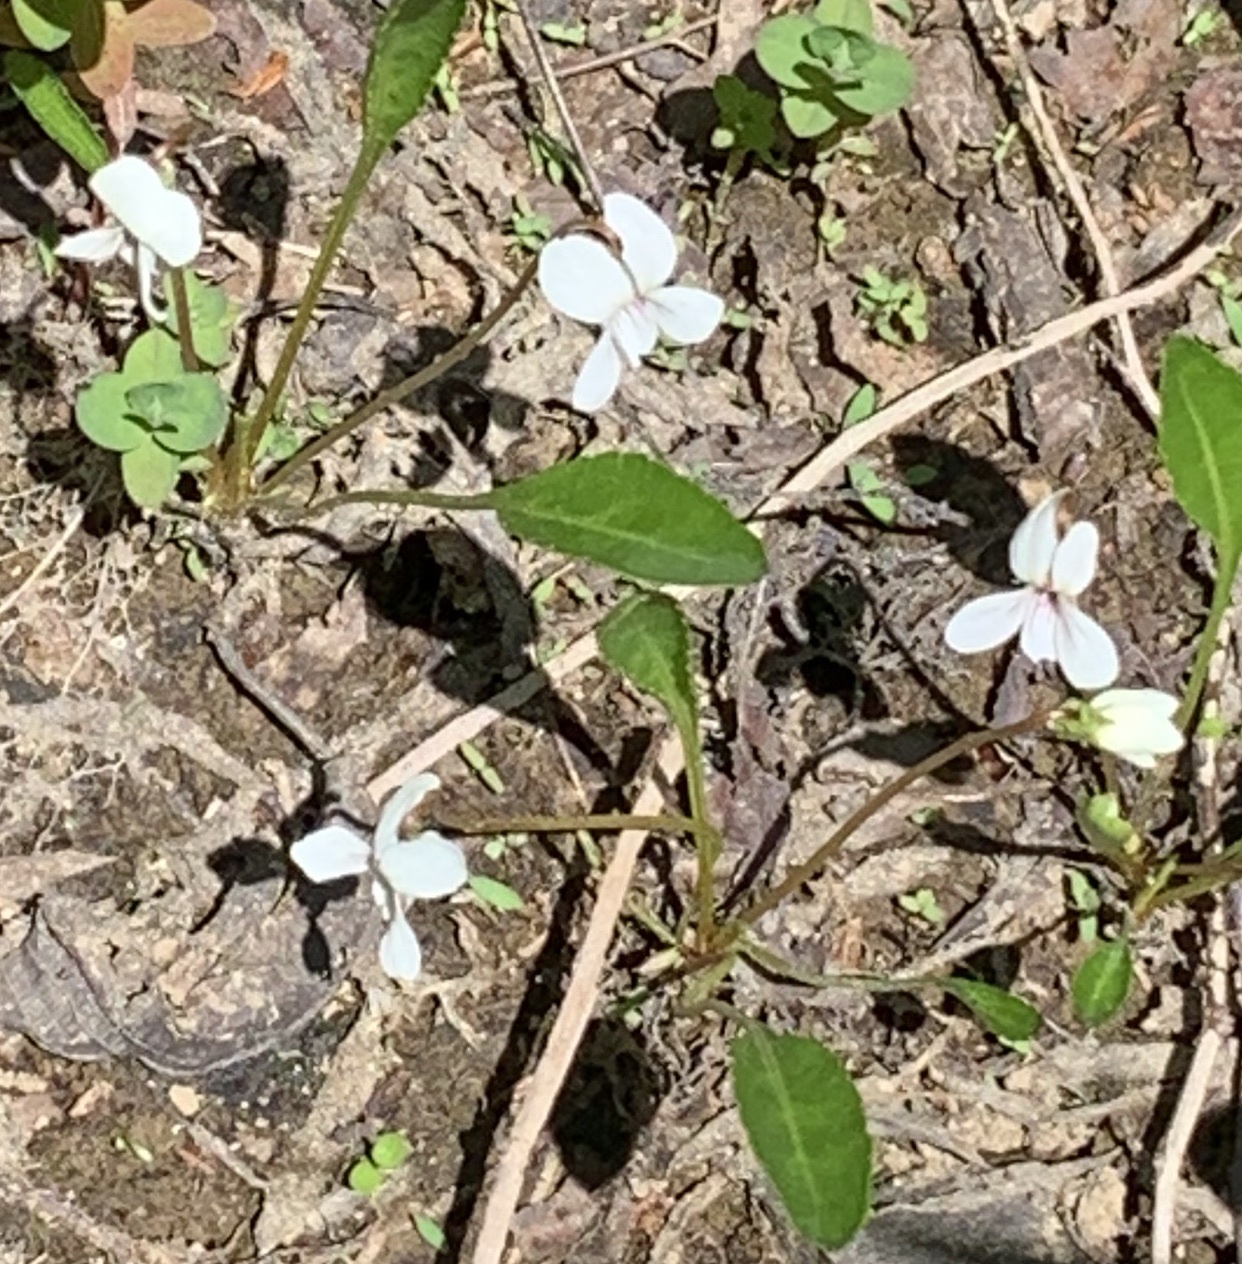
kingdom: Plantae
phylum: Tracheophyta
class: Magnoliopsida
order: Malpighiales
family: Violaceae
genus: Viola
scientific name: Viola lanceolata
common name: Bog white violet
